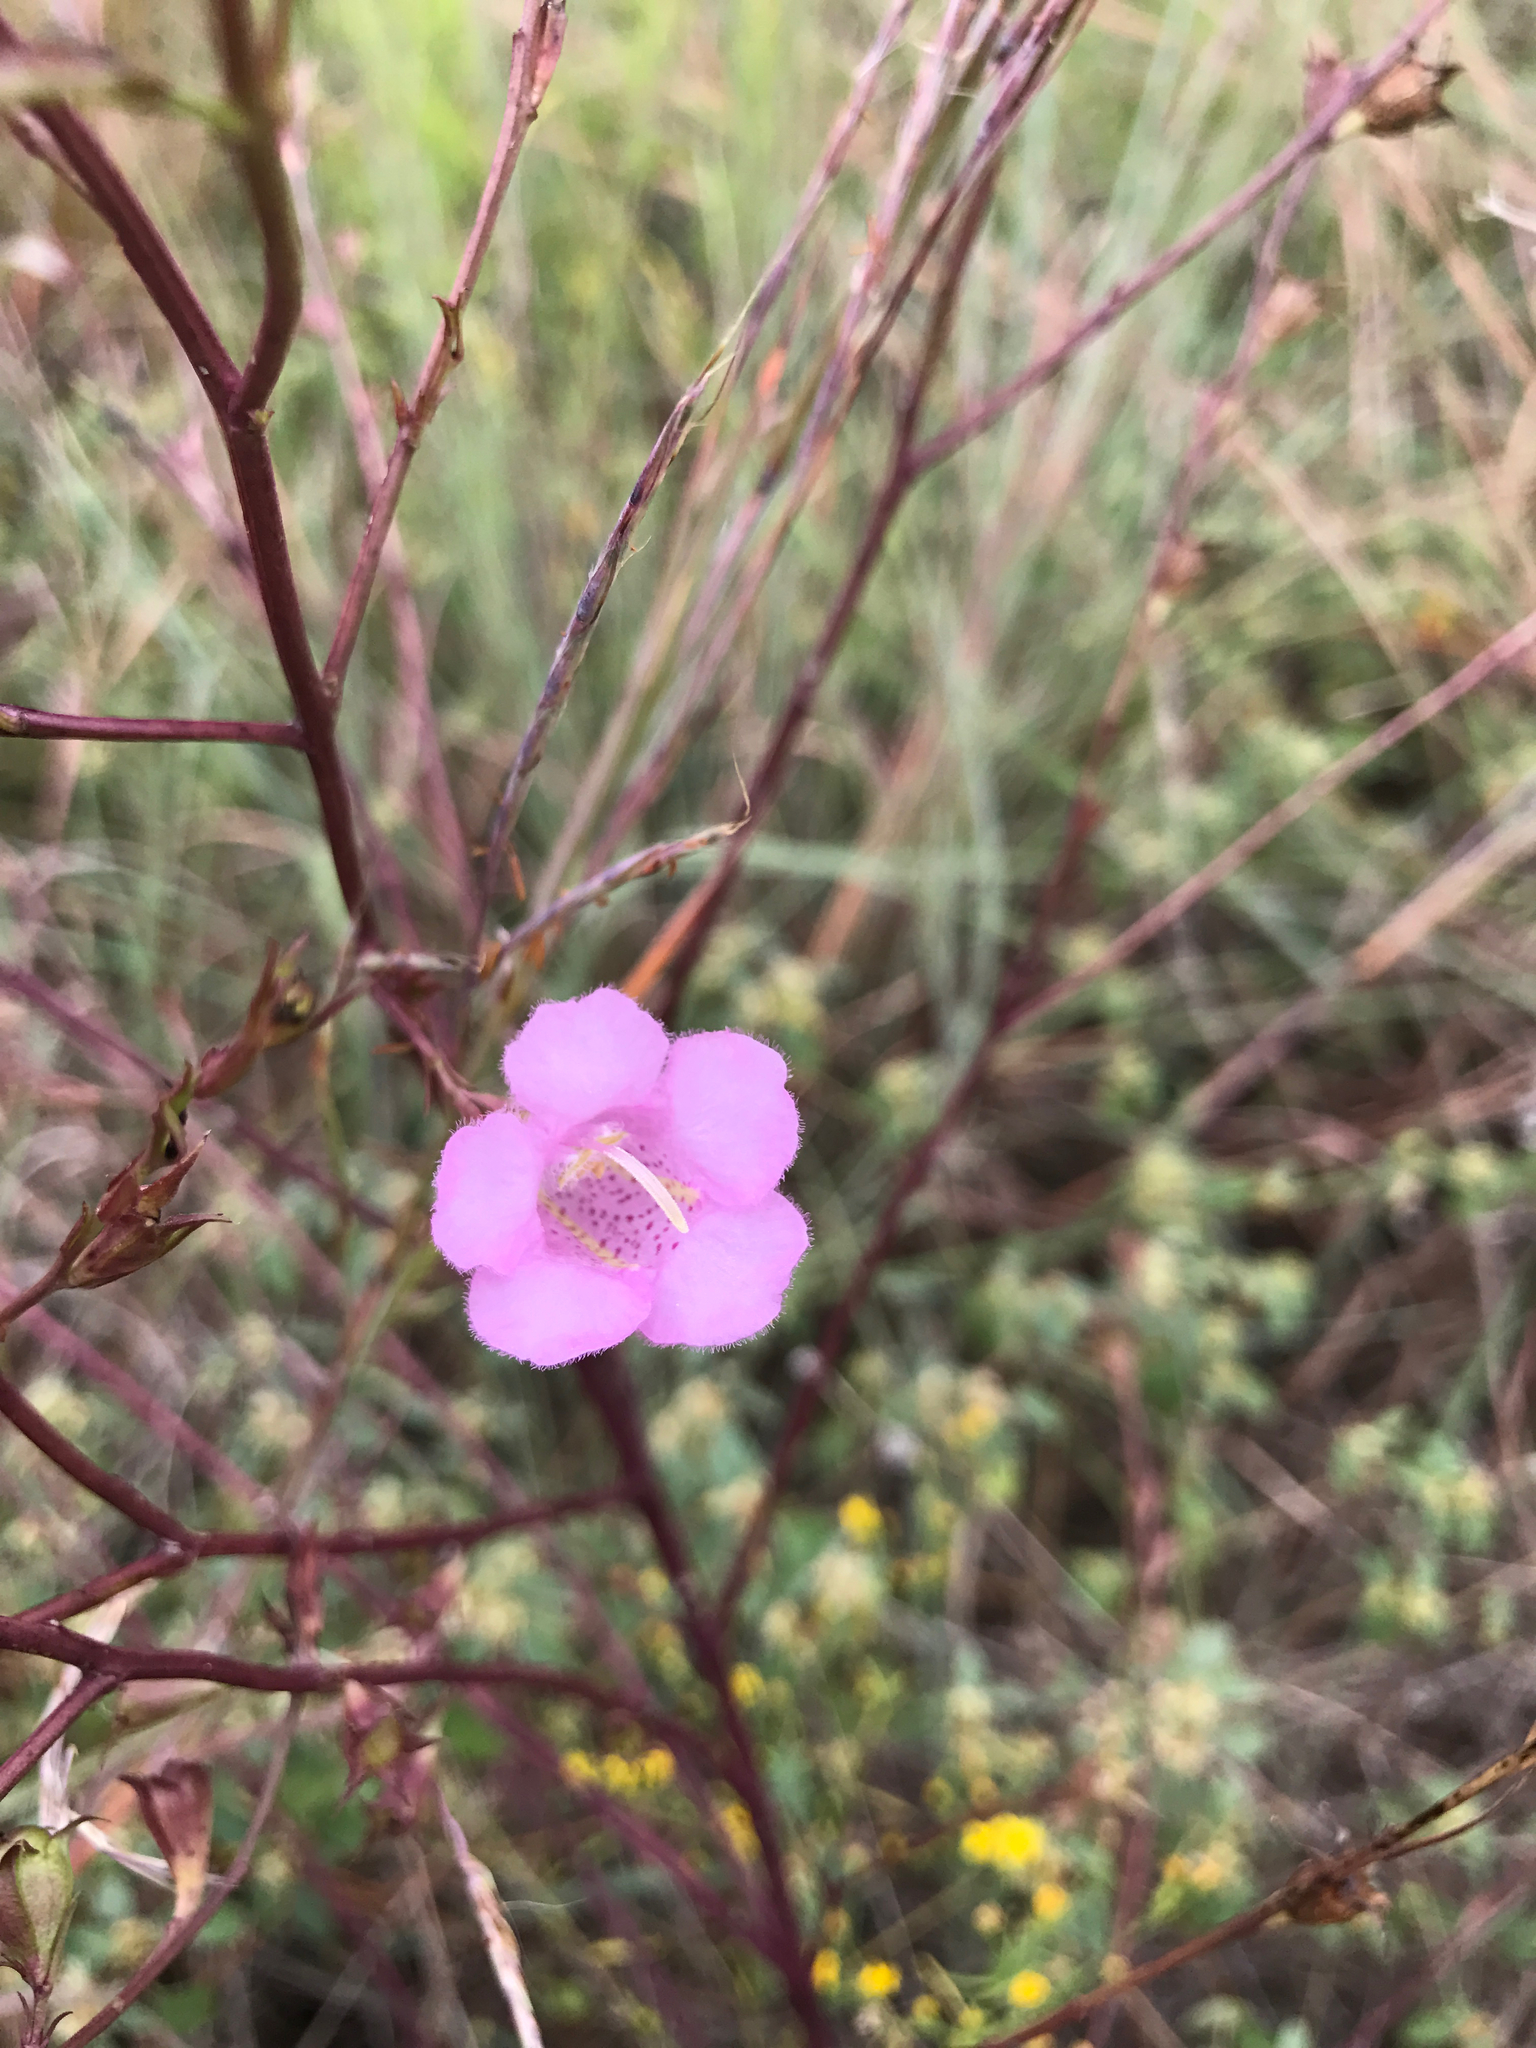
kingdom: Plantae
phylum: Tracheophyta
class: Magnoliopsida
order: Lamiales
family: Orobanchaceae
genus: Agalinis
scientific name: Agalinis heterophylla
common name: Prairie agalinis
